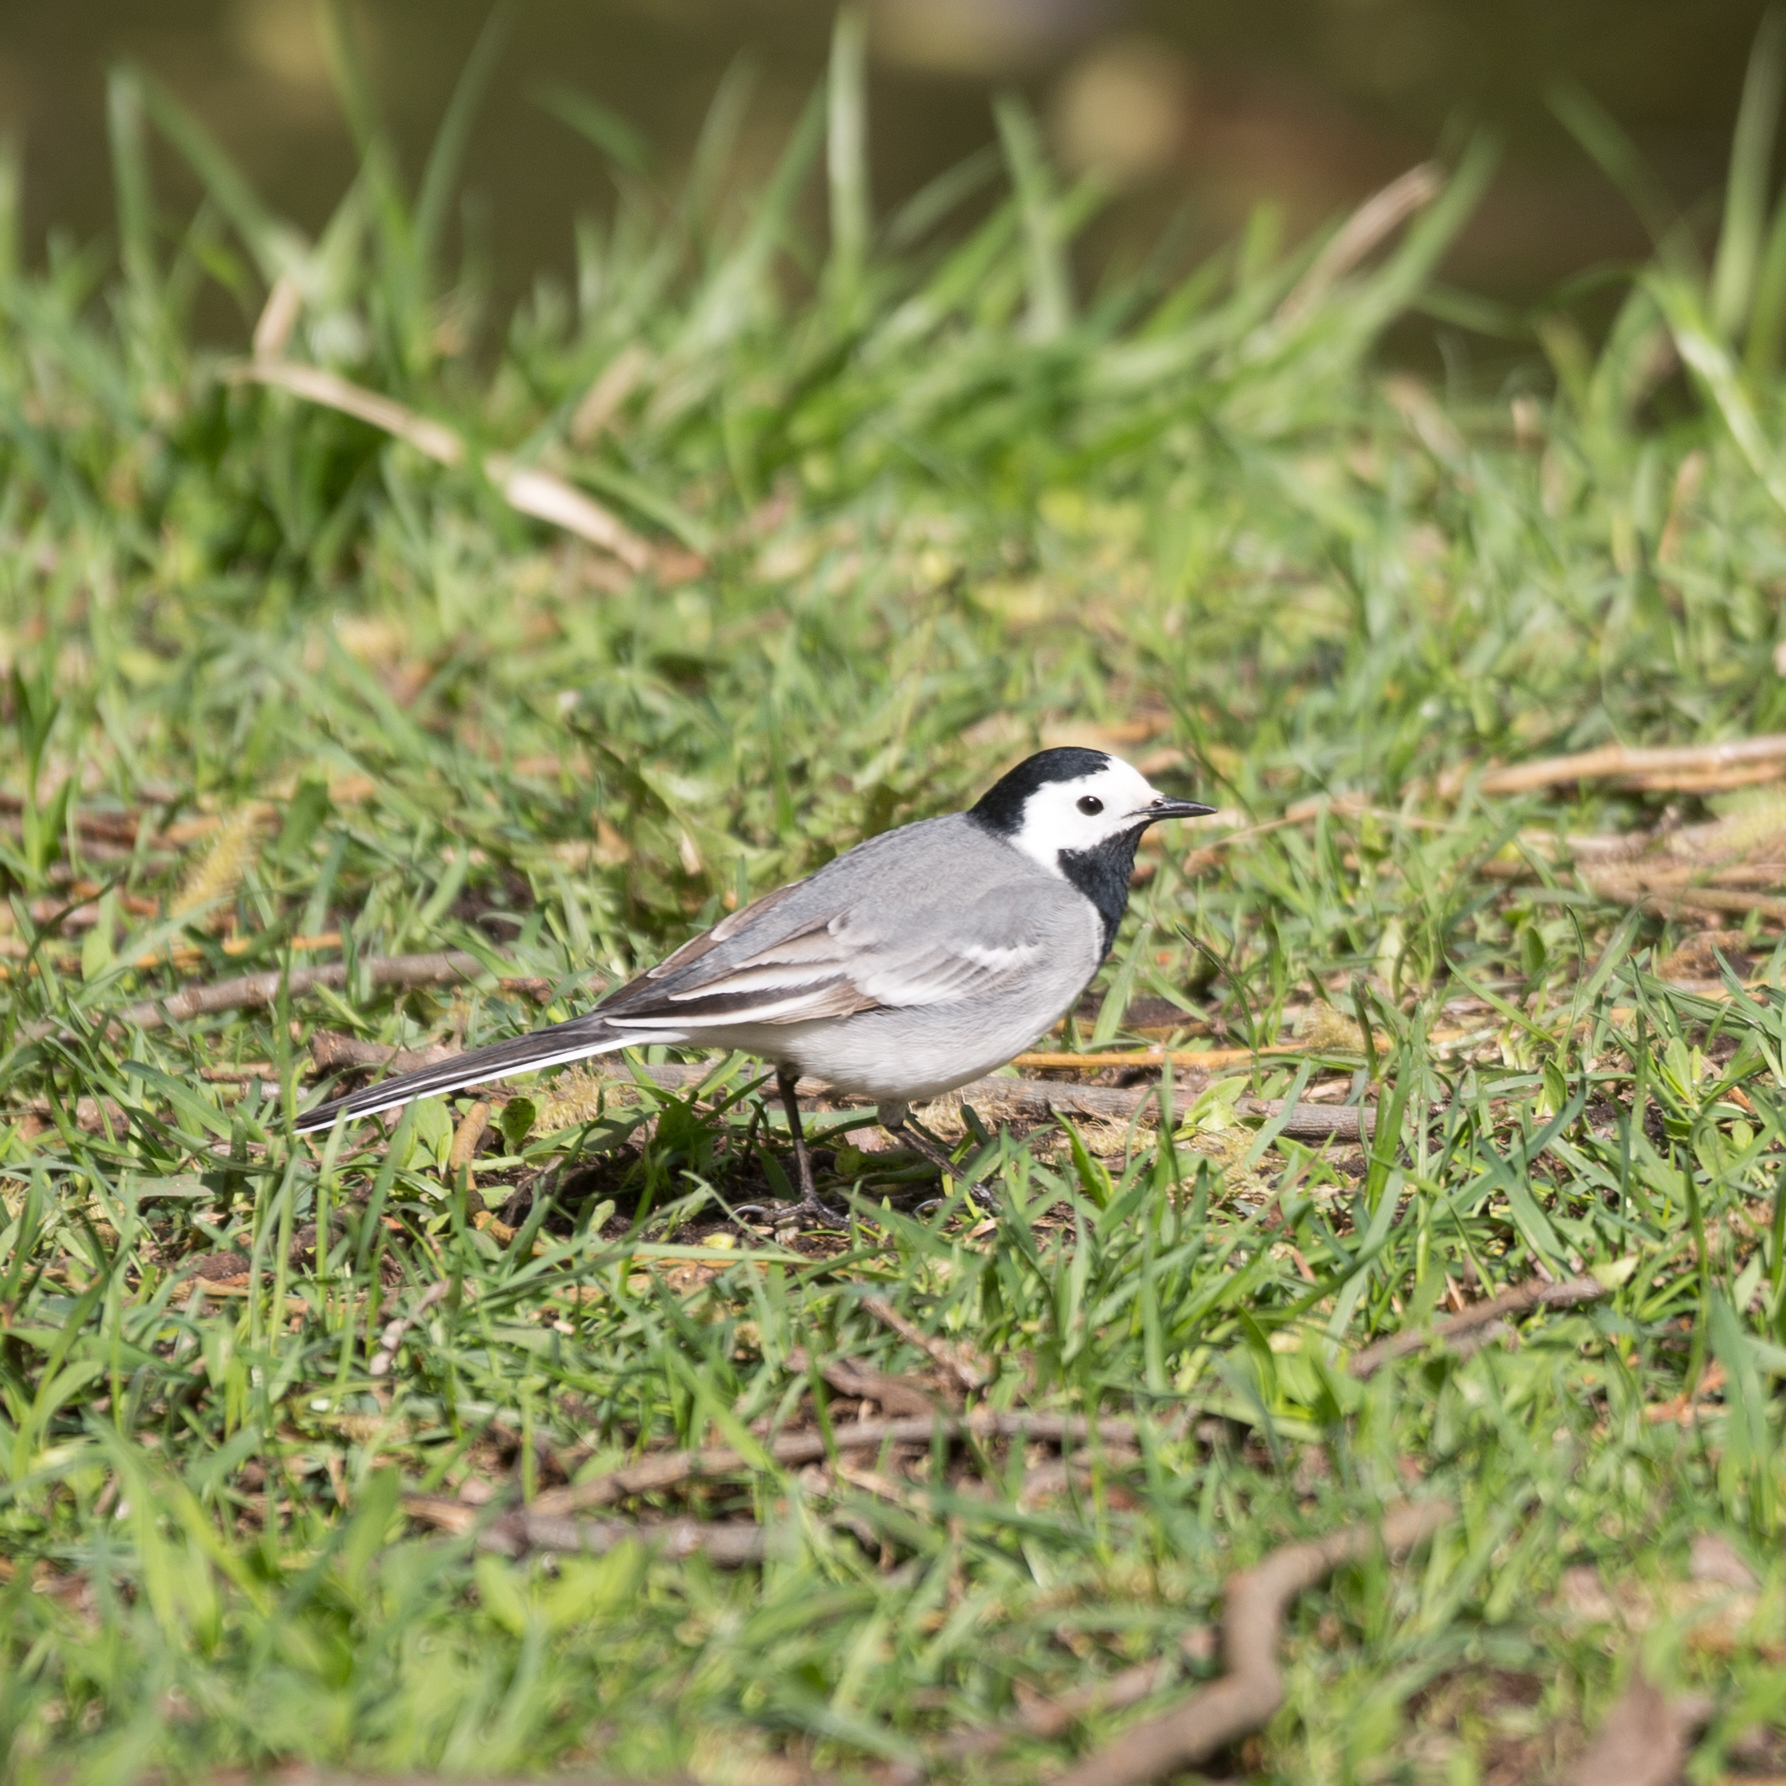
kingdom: Animalia
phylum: Chordata
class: Aves
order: Passeriformes
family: Motacillidae
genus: Motacilla
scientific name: Motacilla alba
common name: White wagtail
